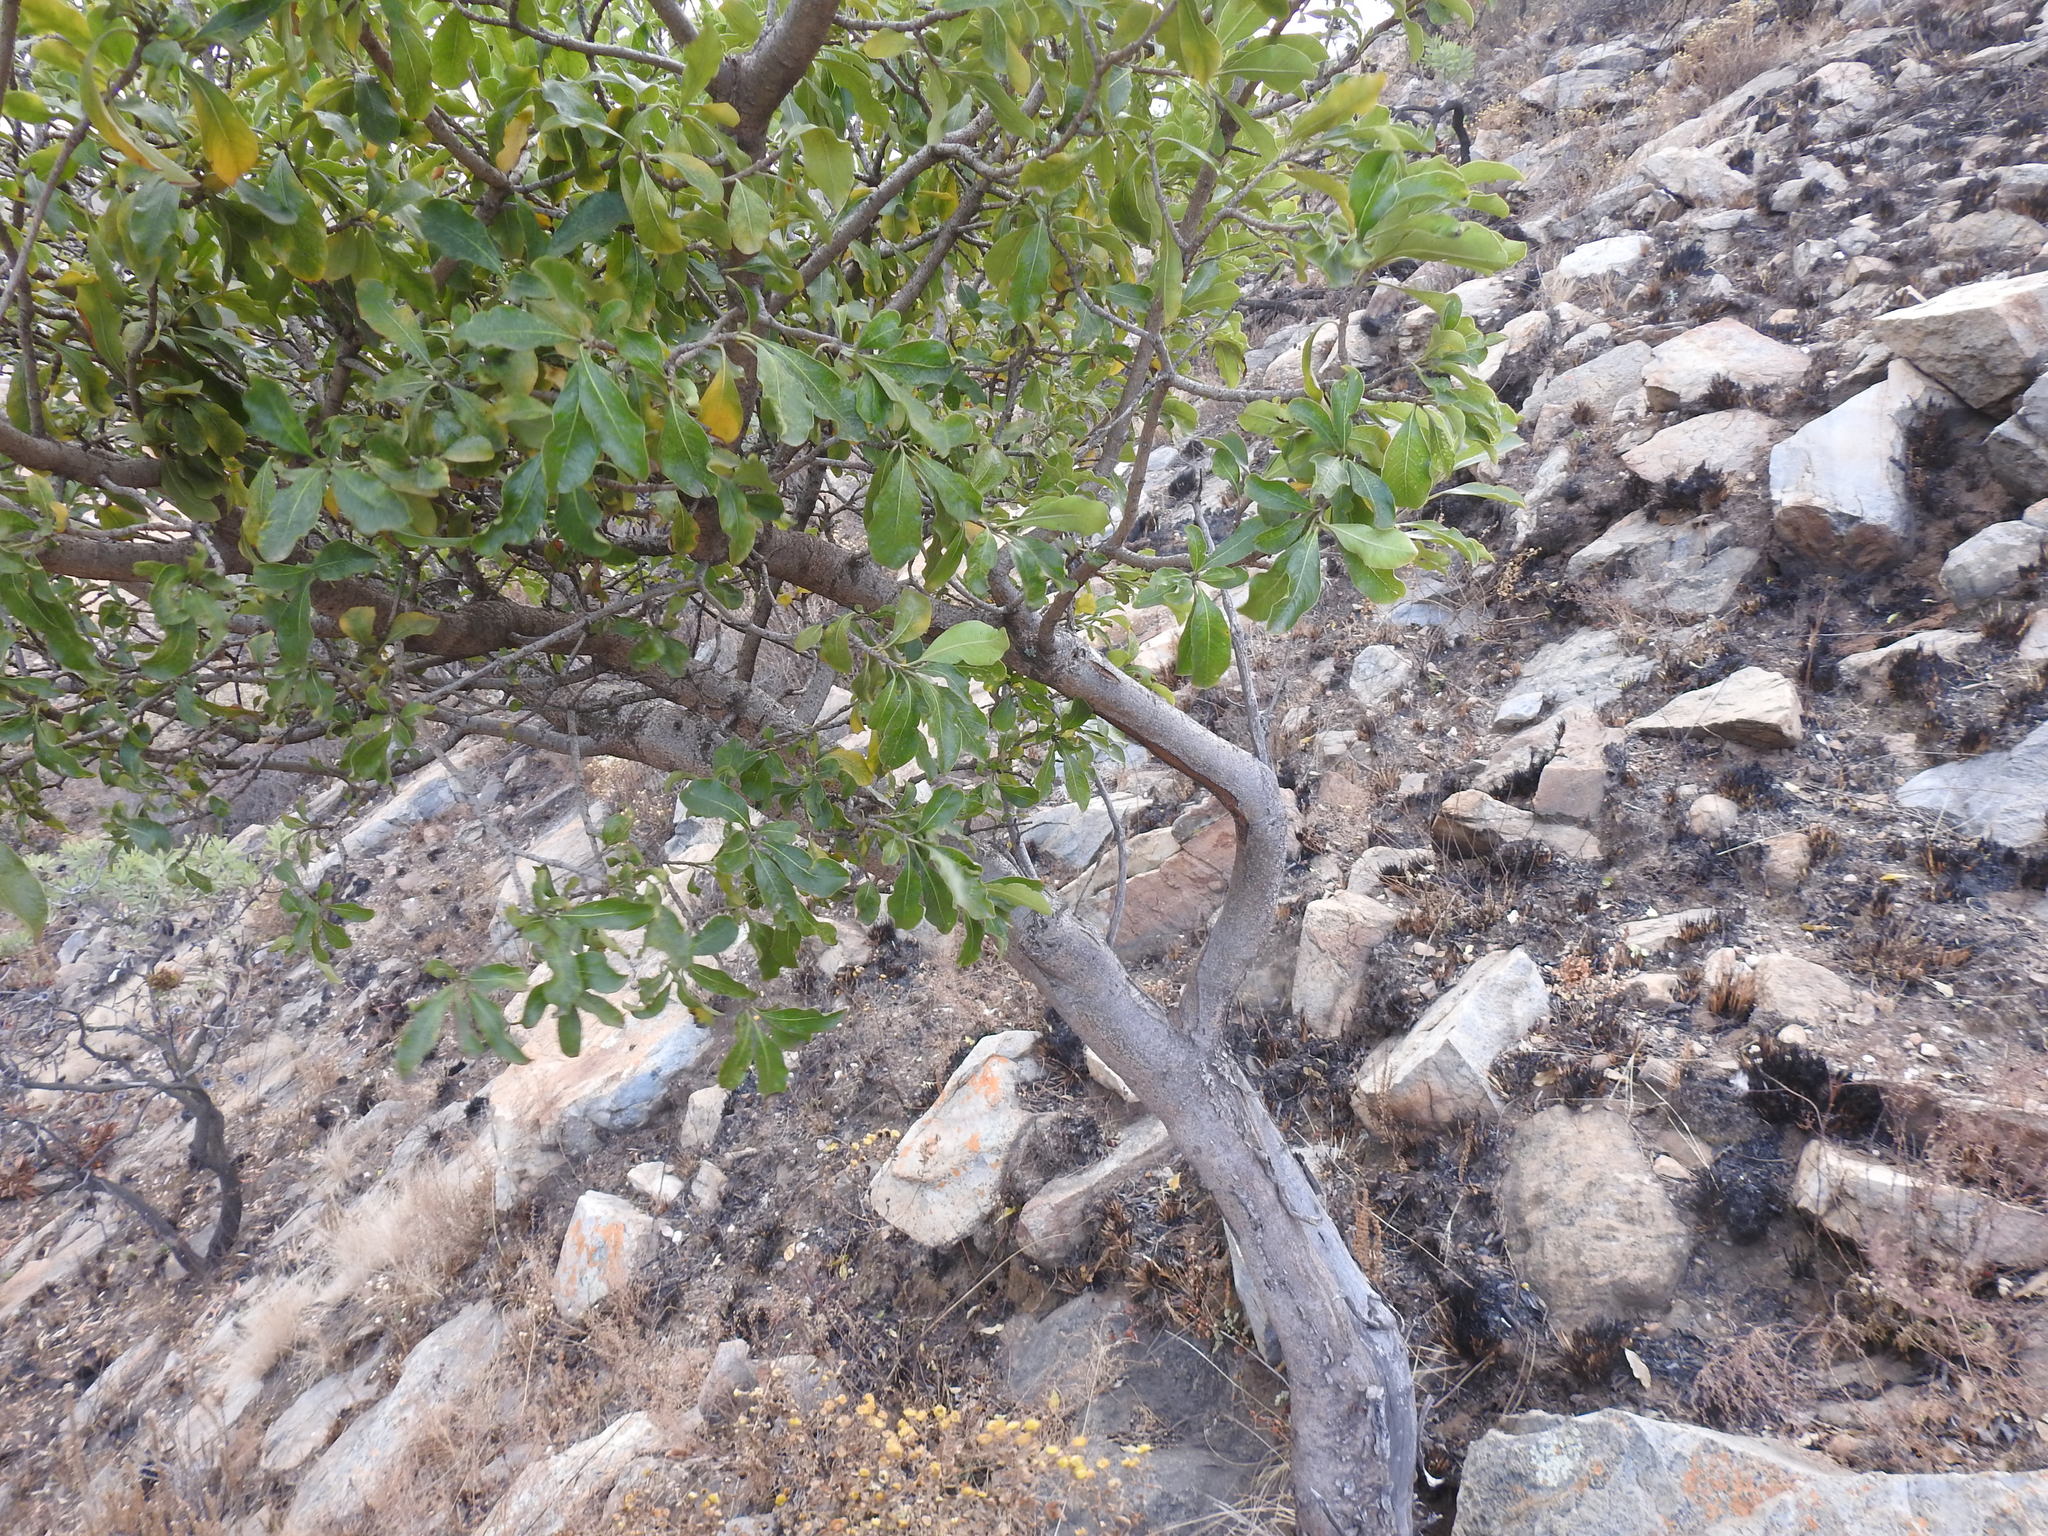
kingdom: Plantae
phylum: Tracheophyta
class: Magnoliopsida
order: Apiales
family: Pittosporaceae
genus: Pittosporum
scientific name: Pittosporum viridiflorum
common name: Cape cheesewood
